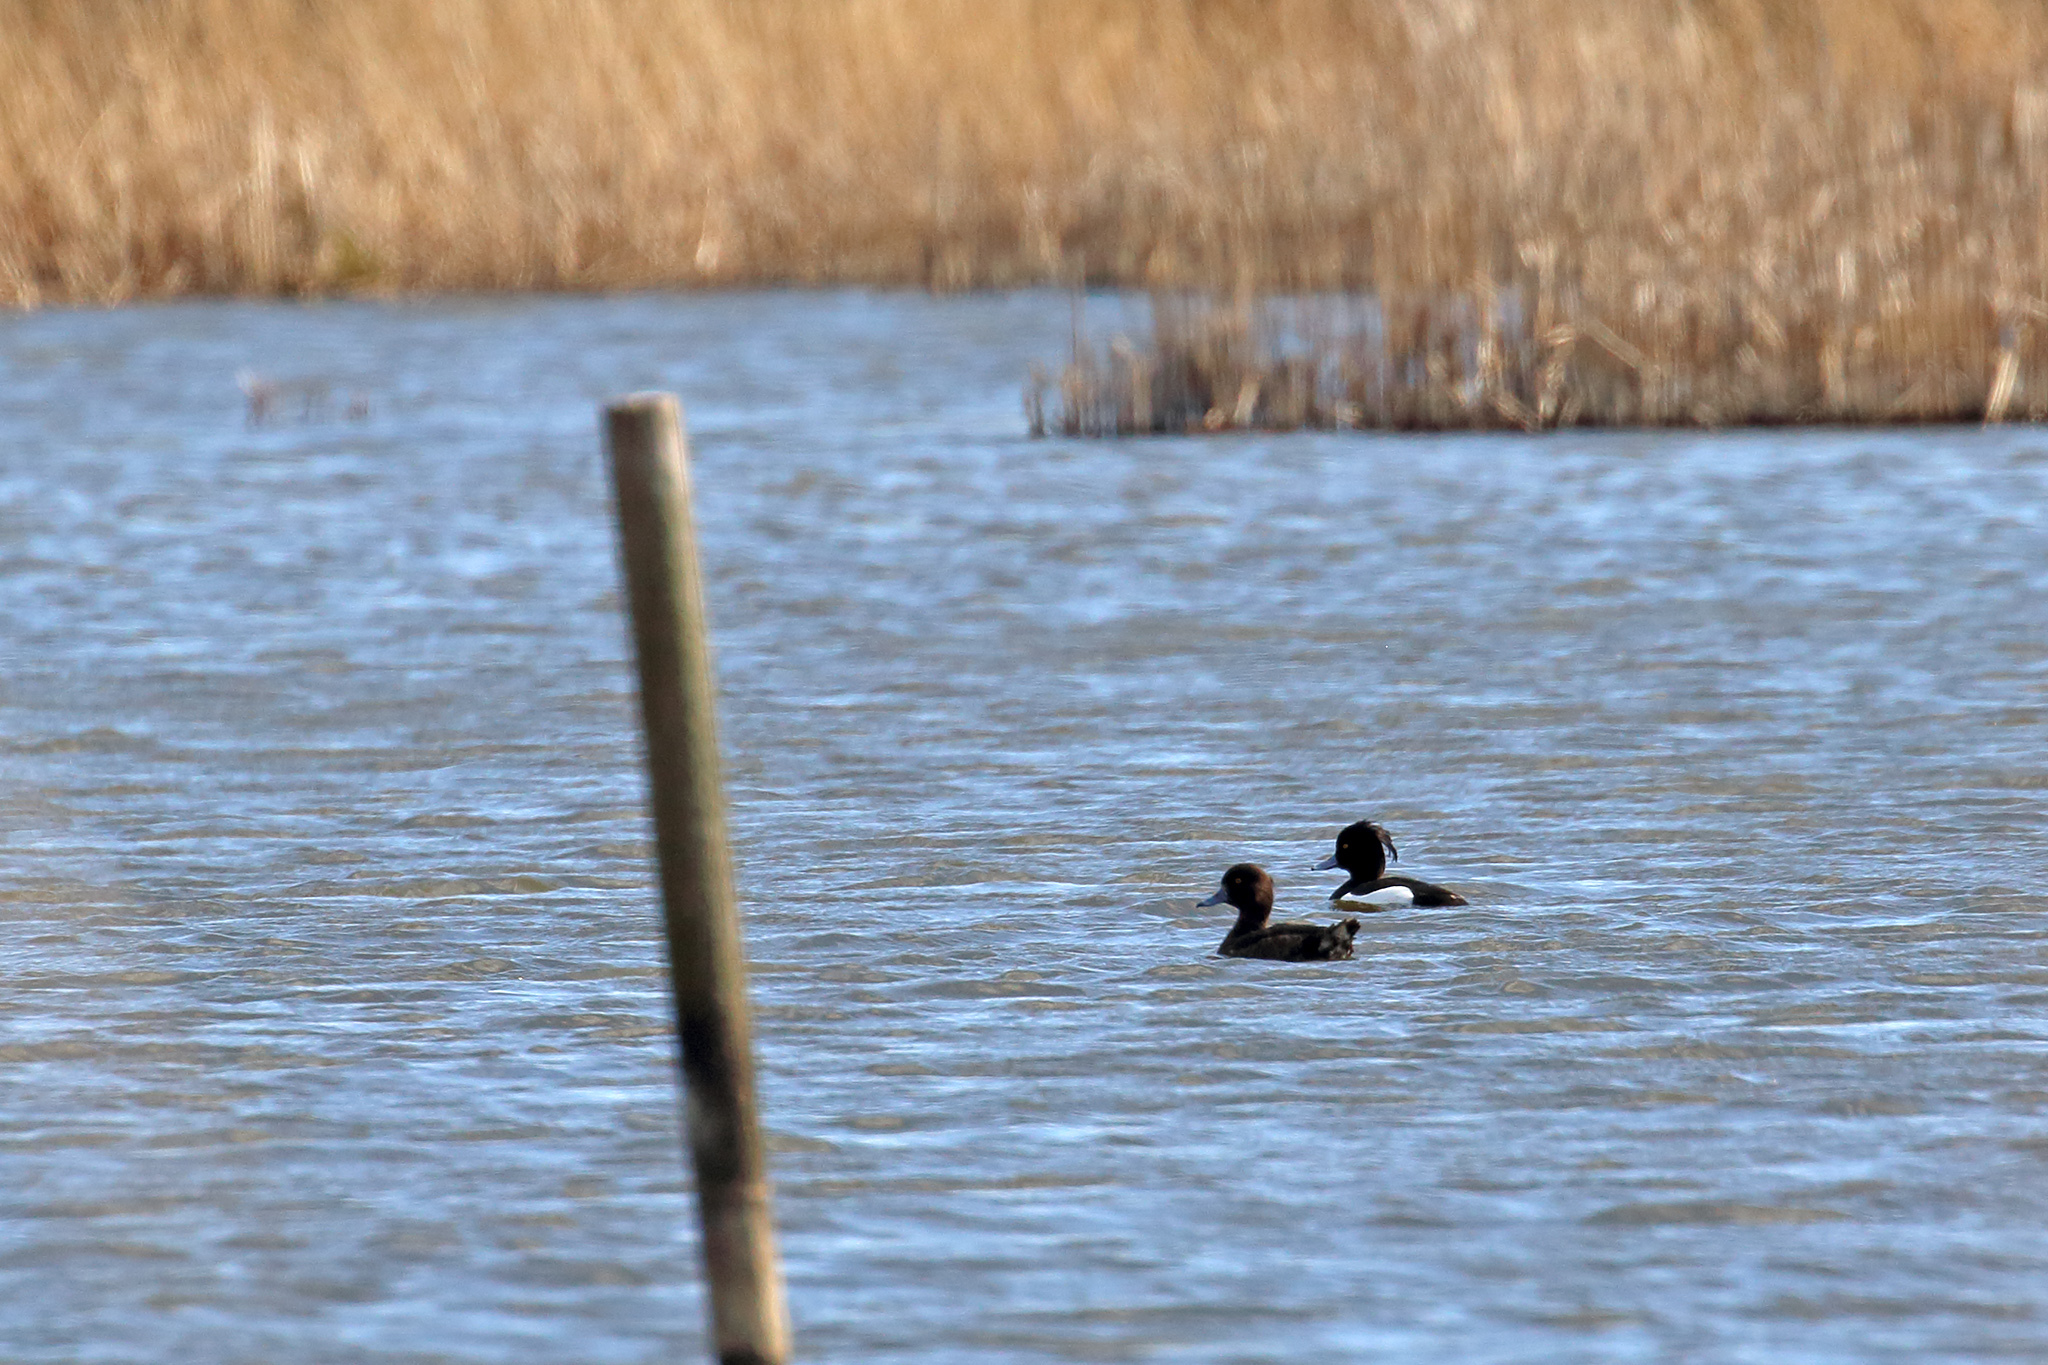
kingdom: Animalia
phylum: Chordata
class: Aves
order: Anseriformes
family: Anatidae
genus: Aythya
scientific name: Aythya fuligula
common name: Tufted duck
